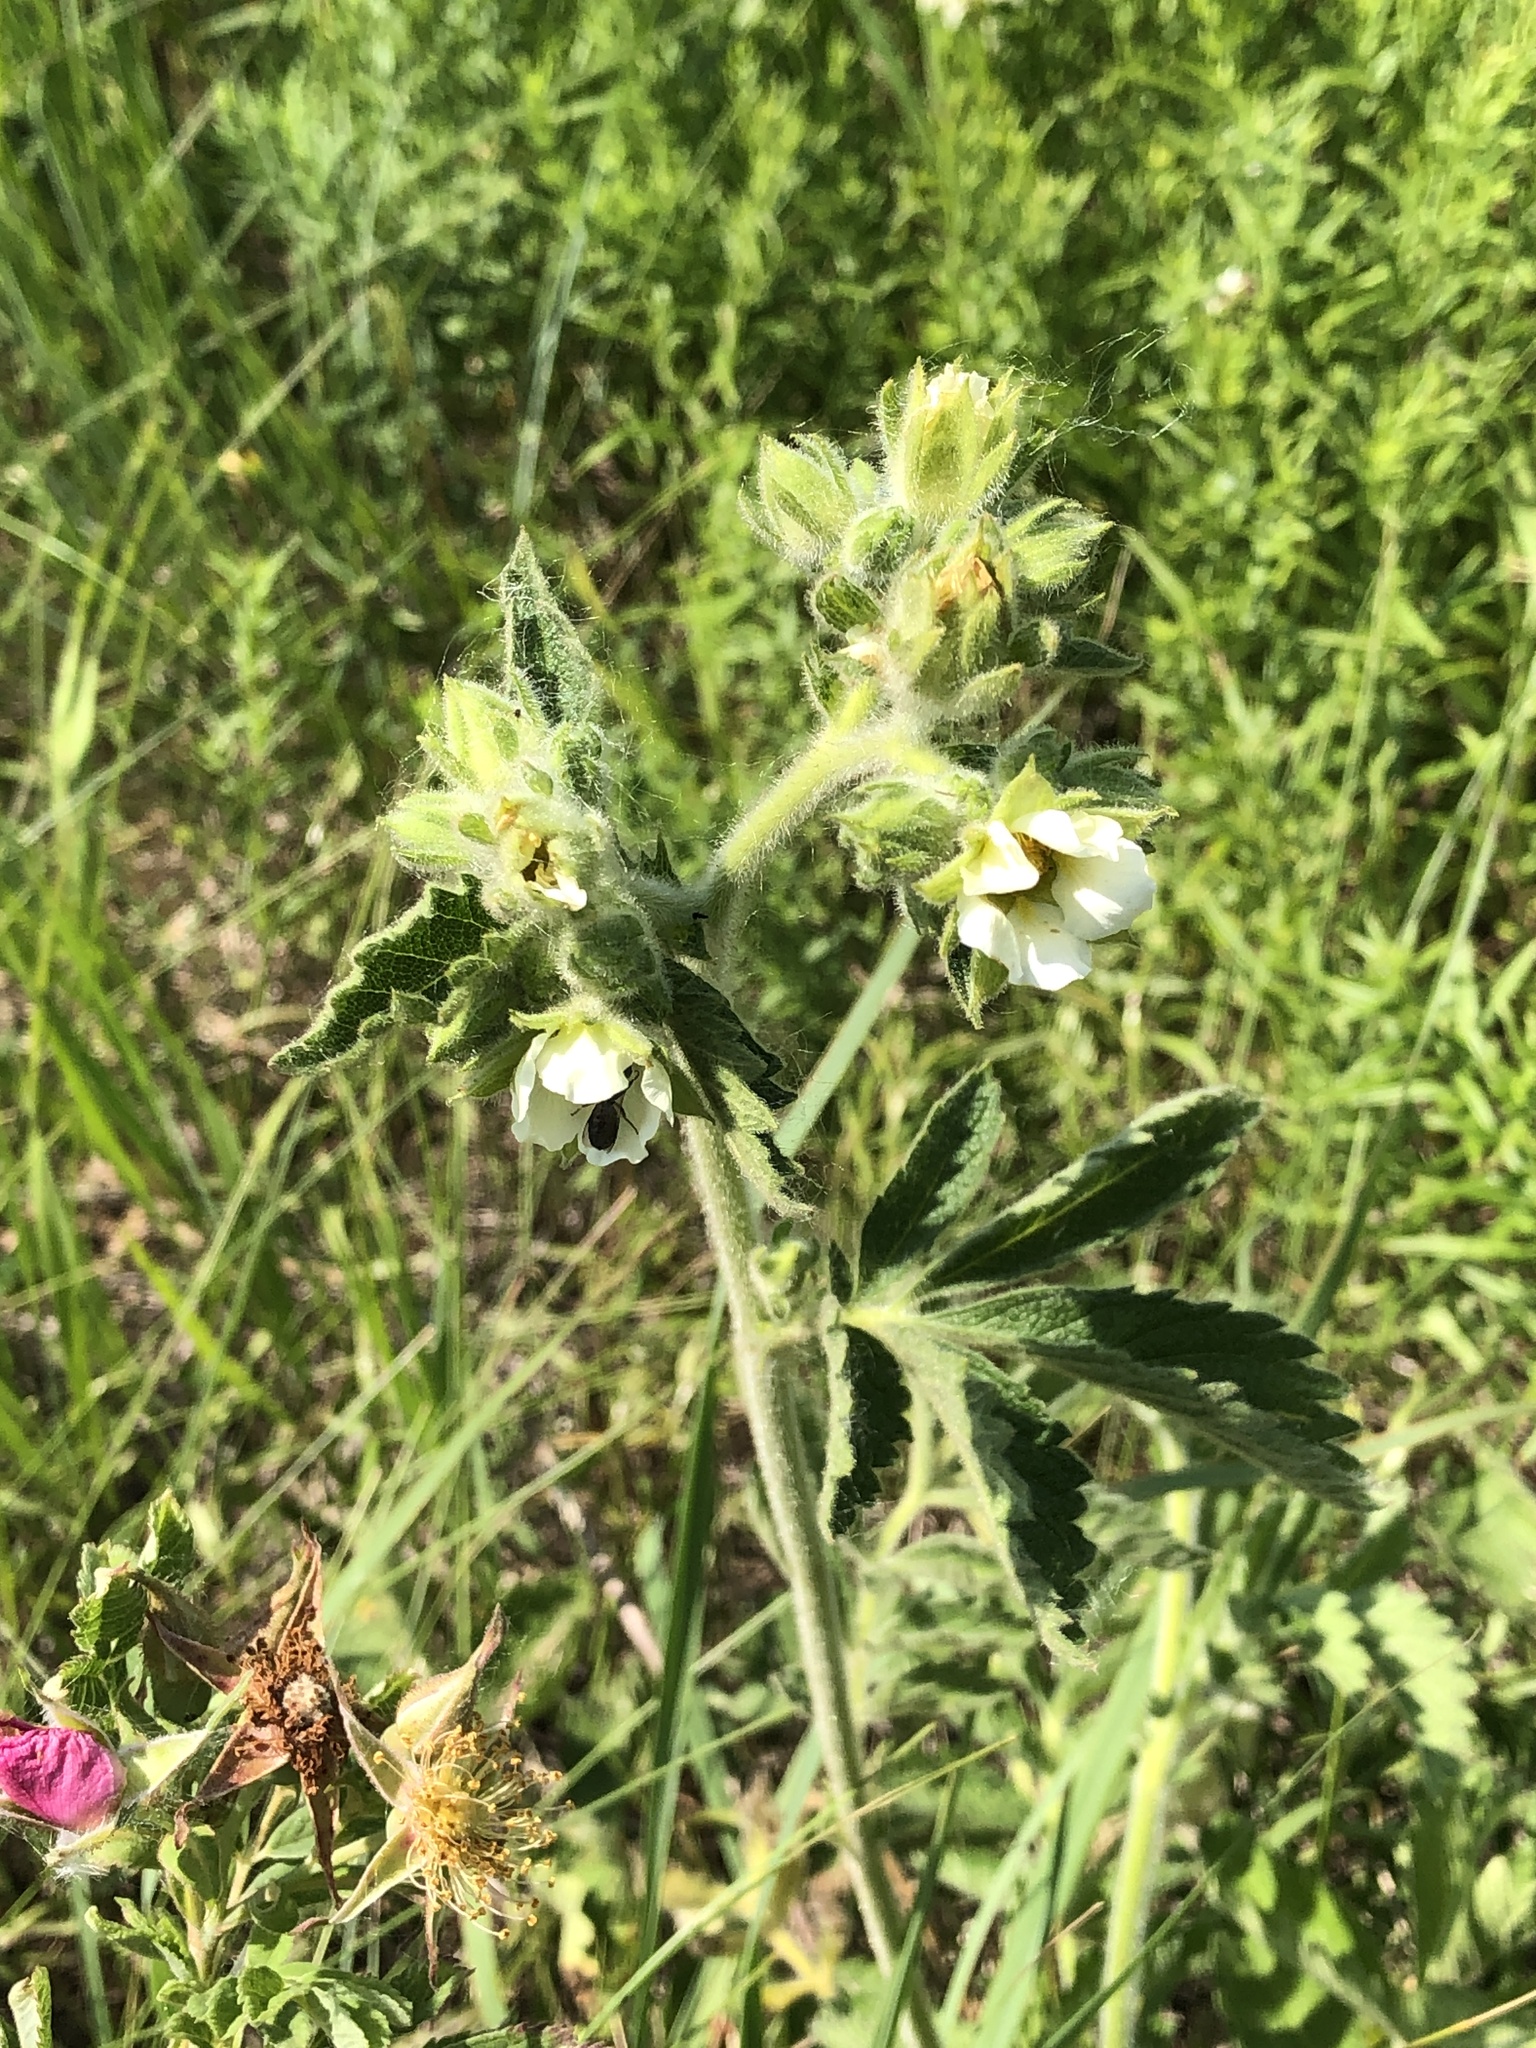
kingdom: Plantae
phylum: Tracheophyta
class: Magnoliopsida
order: Rosales
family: Rosaceae
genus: Drymocallis
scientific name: Drymocallis arguta
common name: Tall cinquefoil
